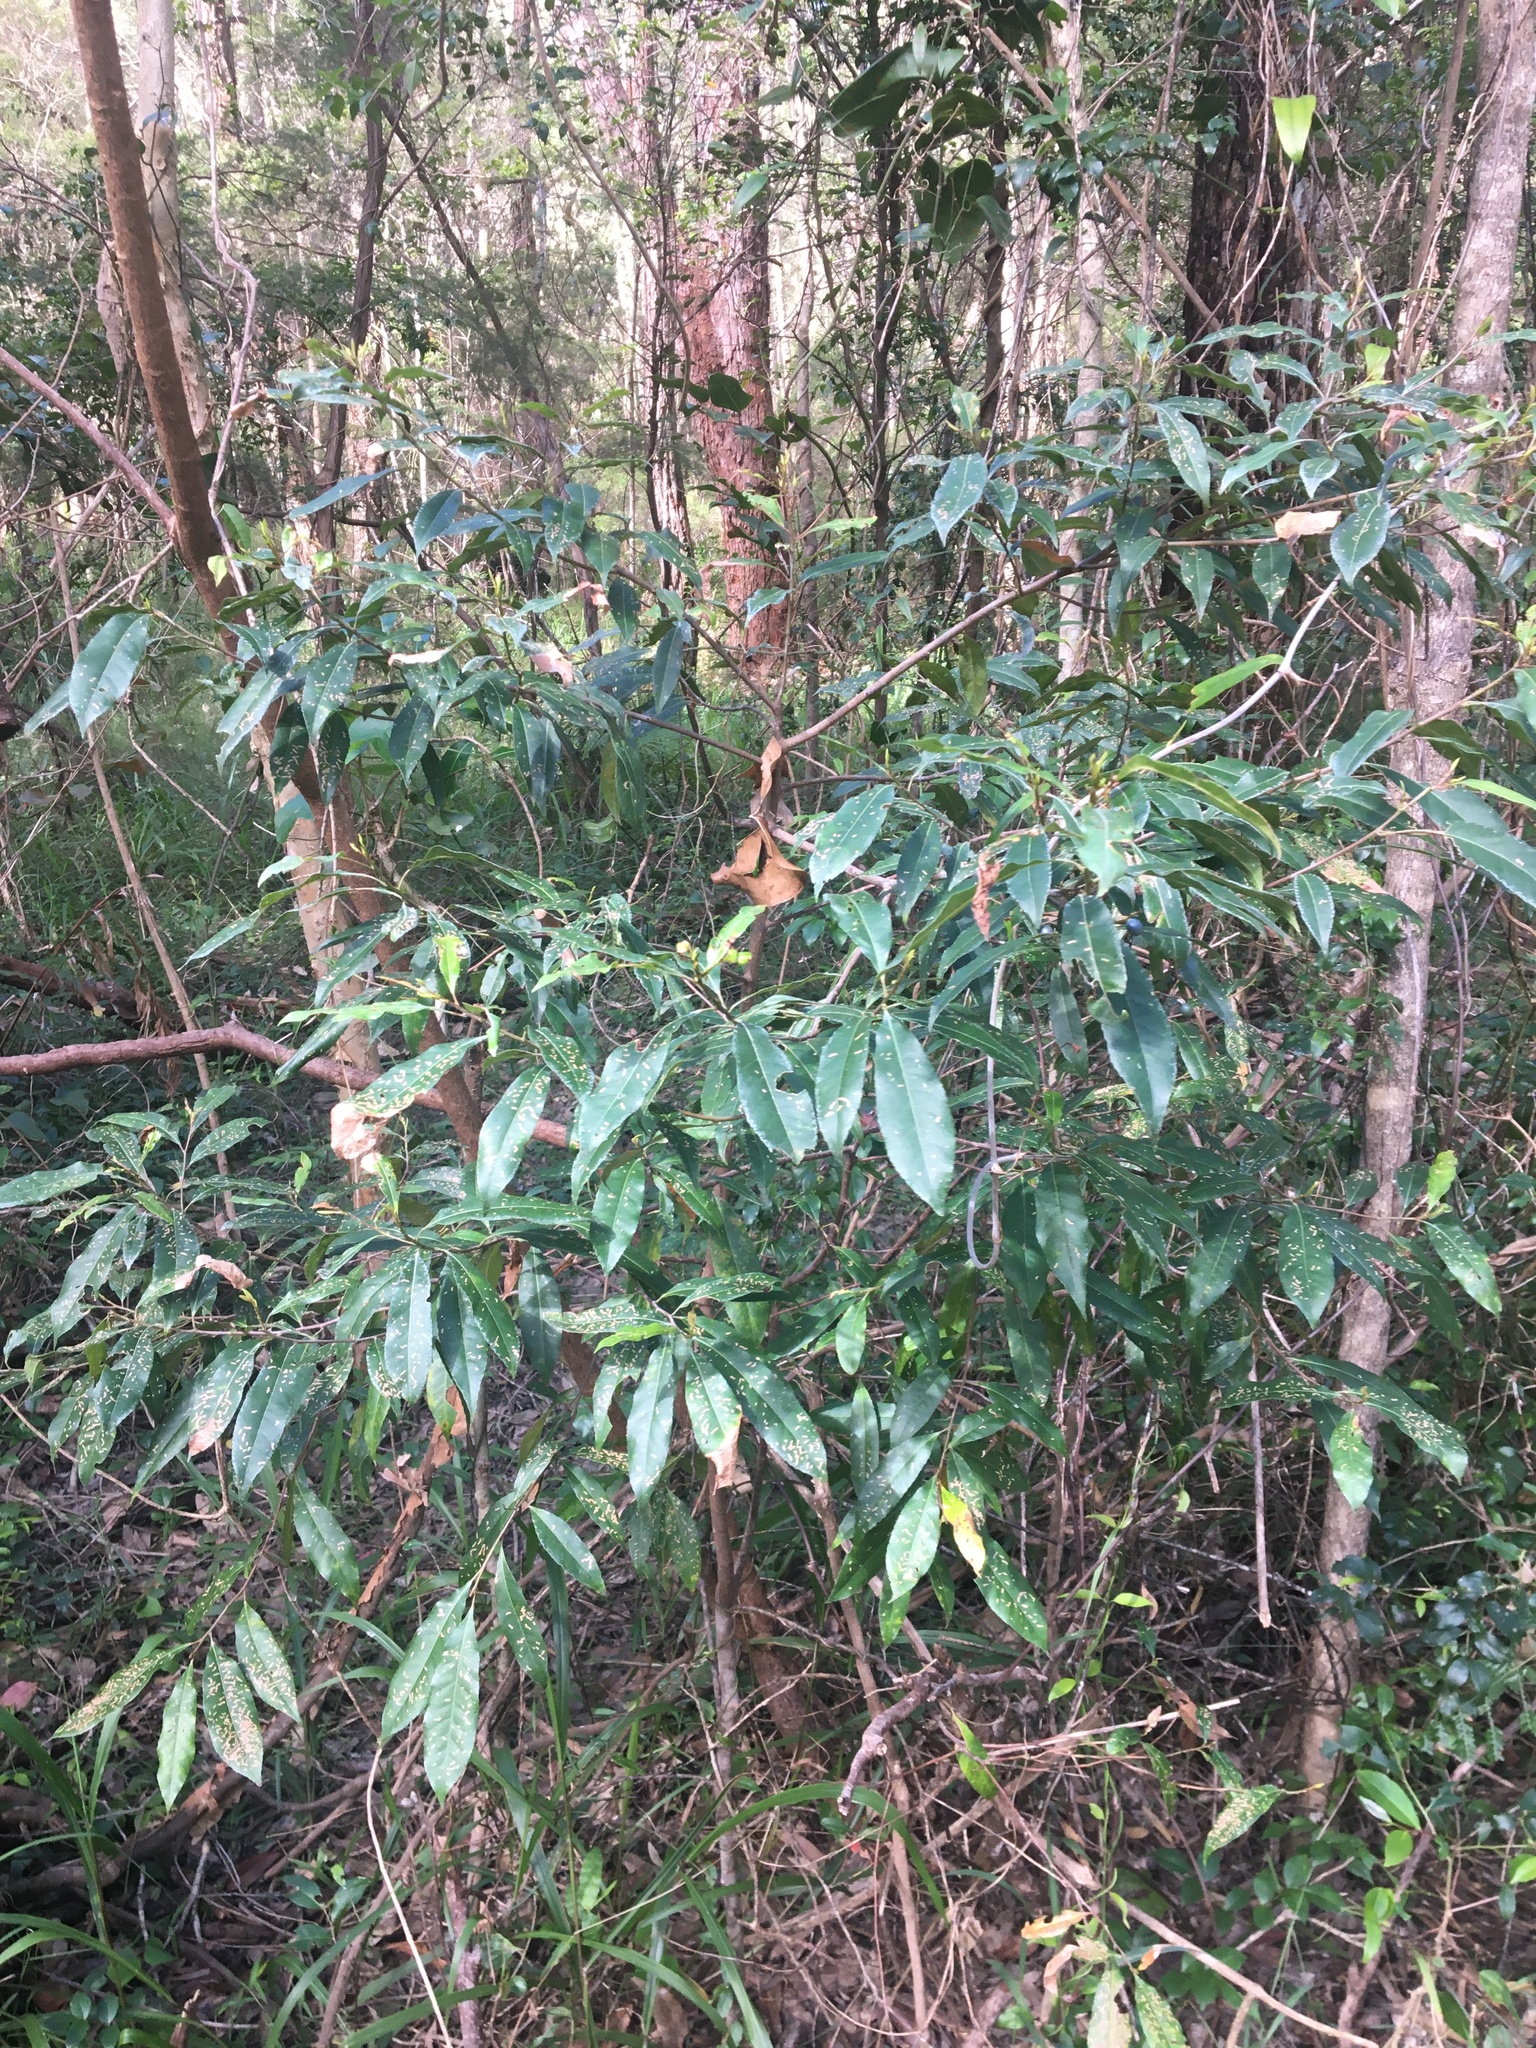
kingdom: Plantae
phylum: Tracheophyta
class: Magnoliopsida
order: Oxalidales
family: Elaeocarpaceae
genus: Elaeocarpus
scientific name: Elaeocarpus reticulatus
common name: Ash quandong
